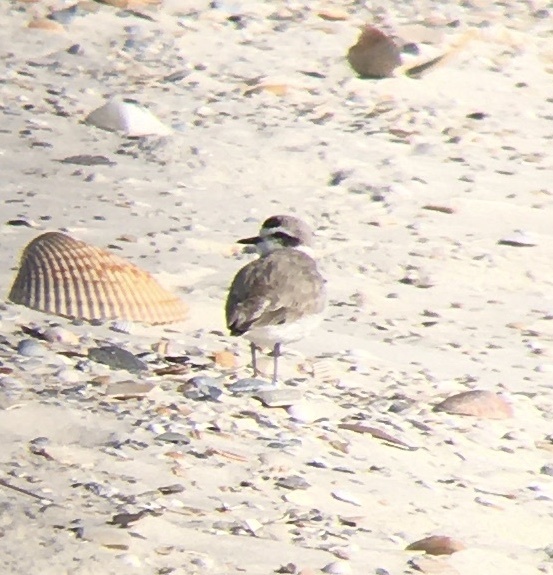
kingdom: Animalia
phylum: Chordata
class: Aves
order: Charadriiformes
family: Charadriidae
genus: Anarhynchus
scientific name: Anarhynchus
